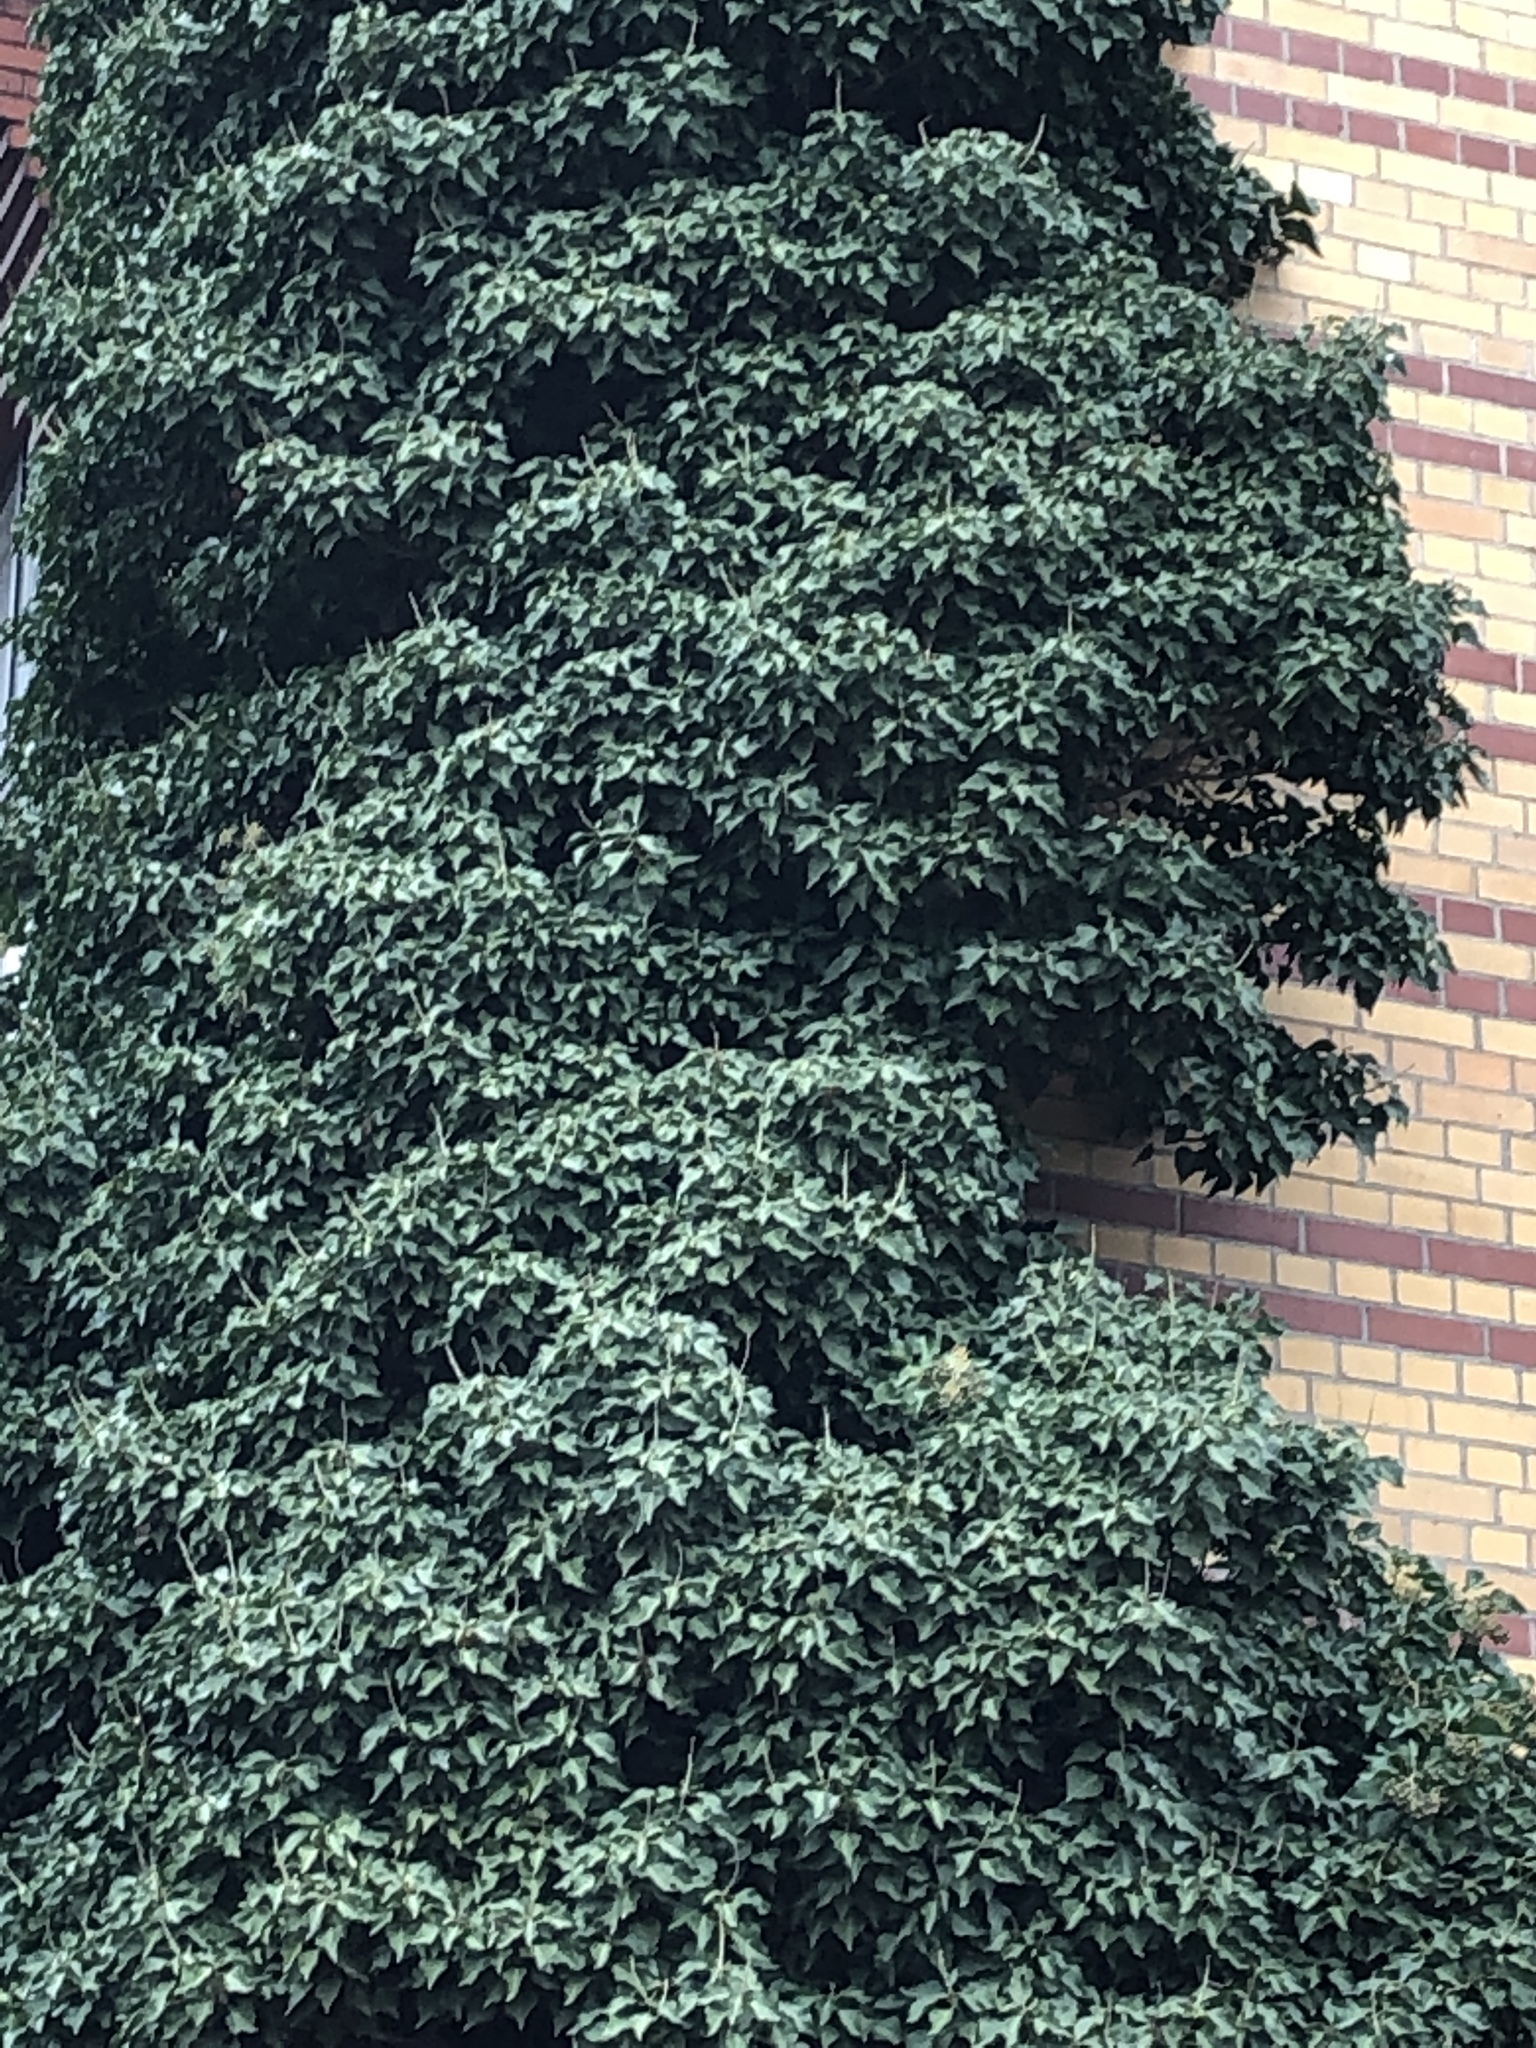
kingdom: Plantae
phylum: Tracheophyta
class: Magnoliopsida
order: Apiales
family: Araliaceae
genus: Hedera
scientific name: Hedera helix
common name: Ivy
